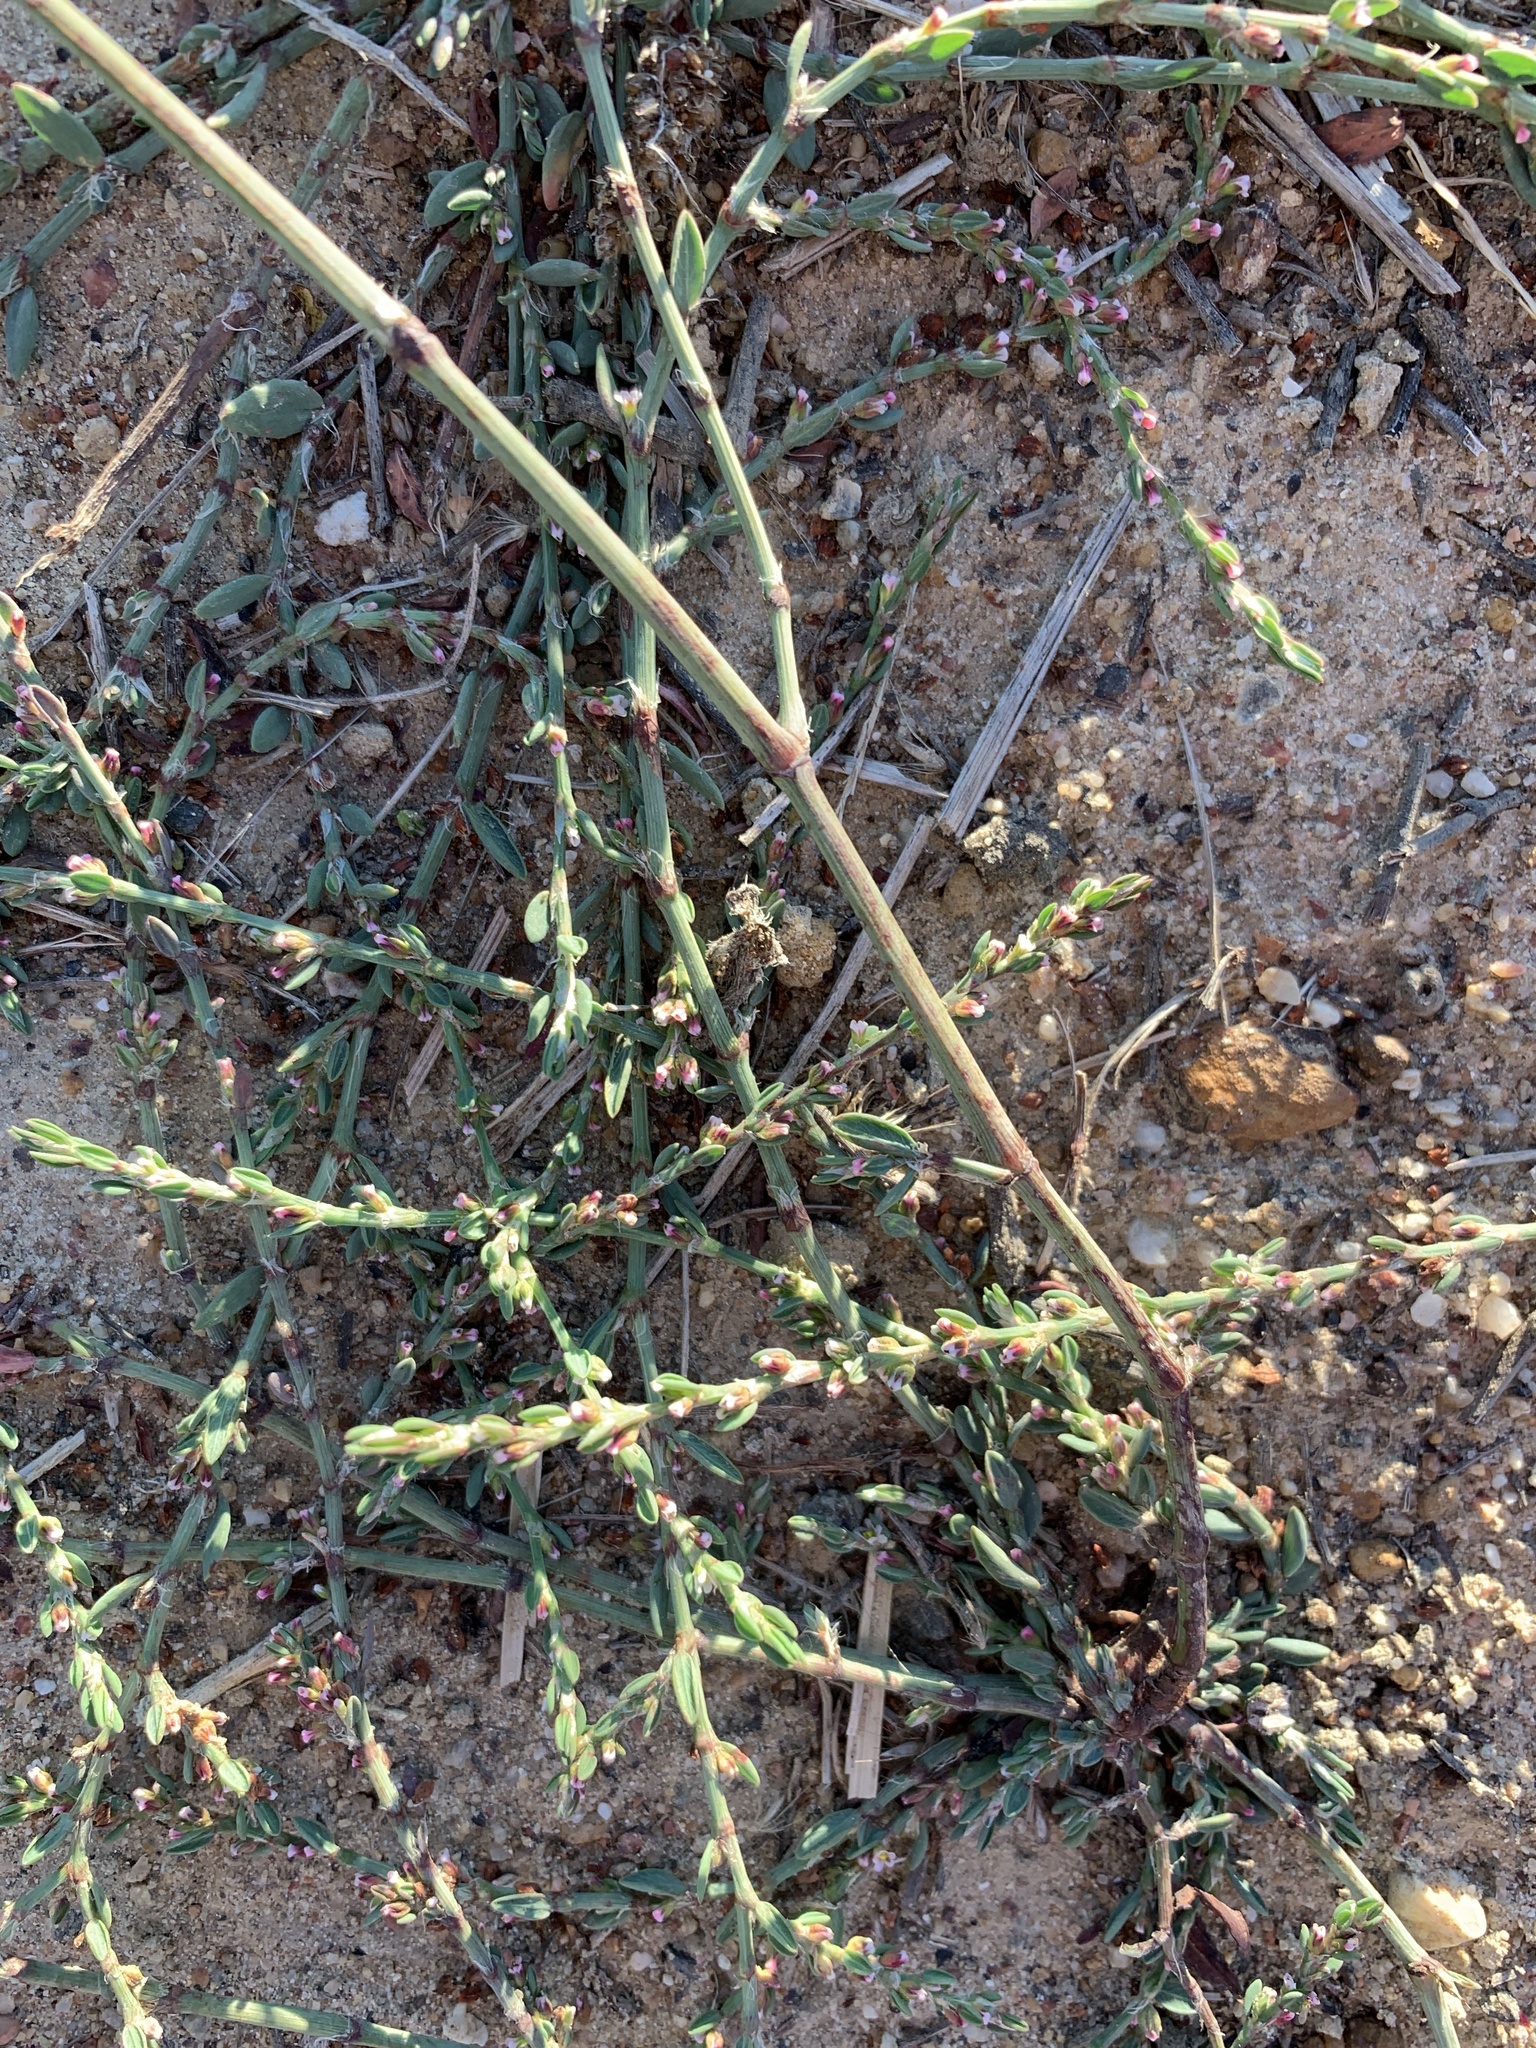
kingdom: Plantae
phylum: Tracheophyta
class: Magnoliopsida
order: Caryophyllales
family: Polygonaceae
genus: Polygonum
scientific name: Polygonum aviculare
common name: Prostrate knotweed
